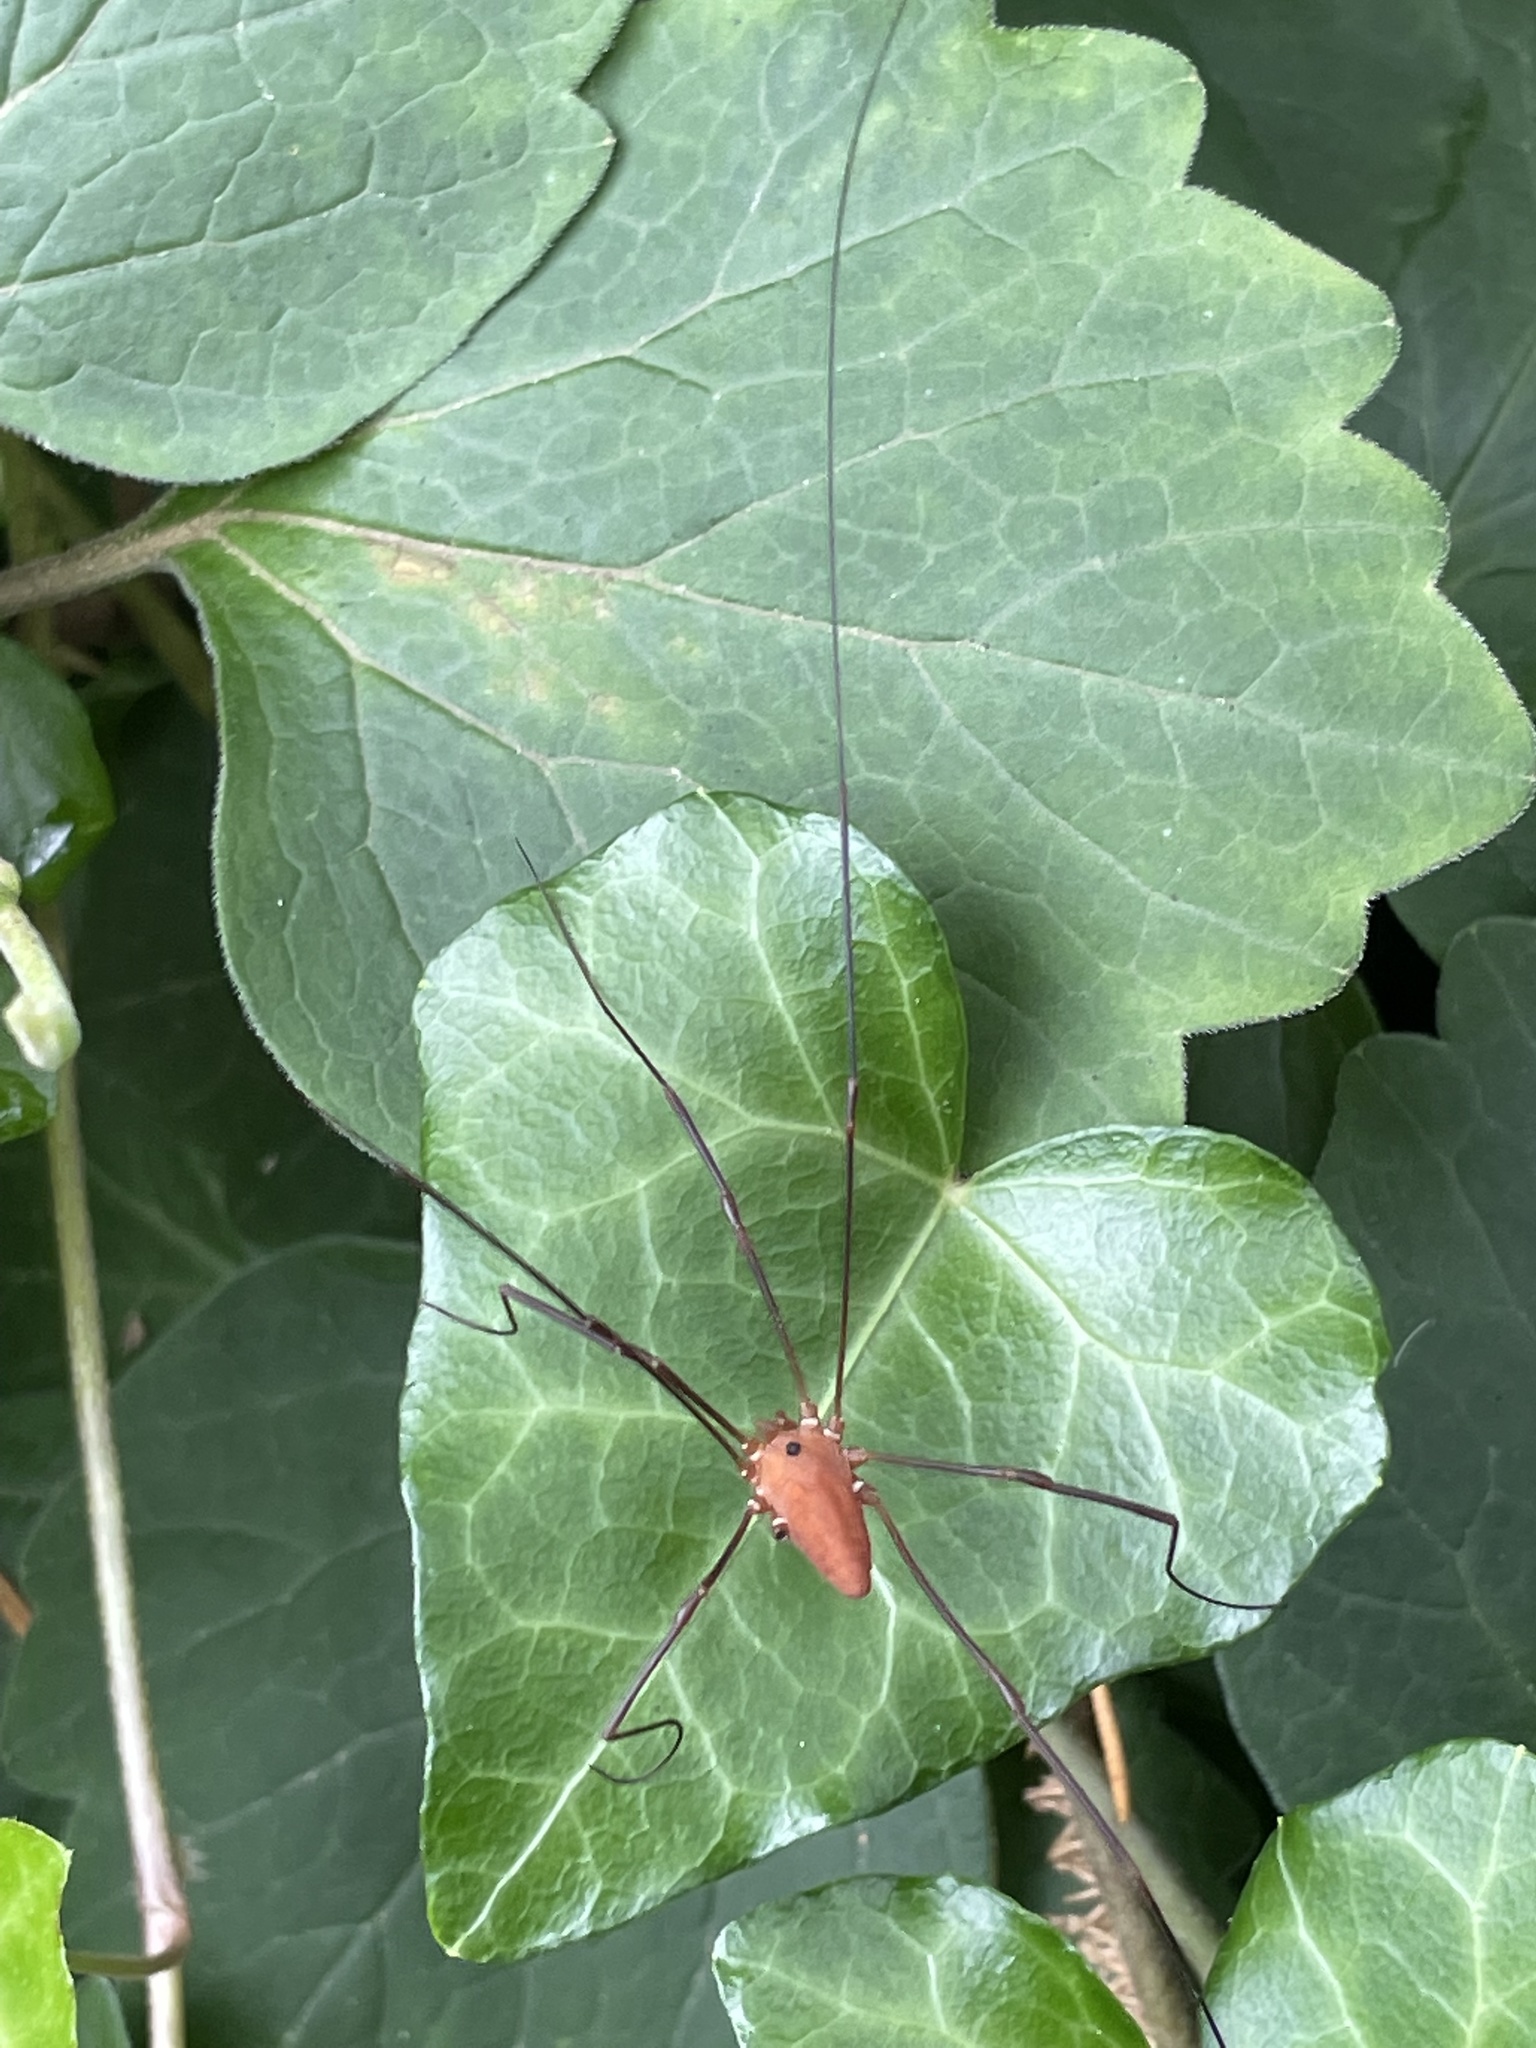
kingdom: Animalia
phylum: Arthropoda
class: Arachnida
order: Opiliones
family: Sclerosomatidae
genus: Leiobunum
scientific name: Leiobunum ventricosum
